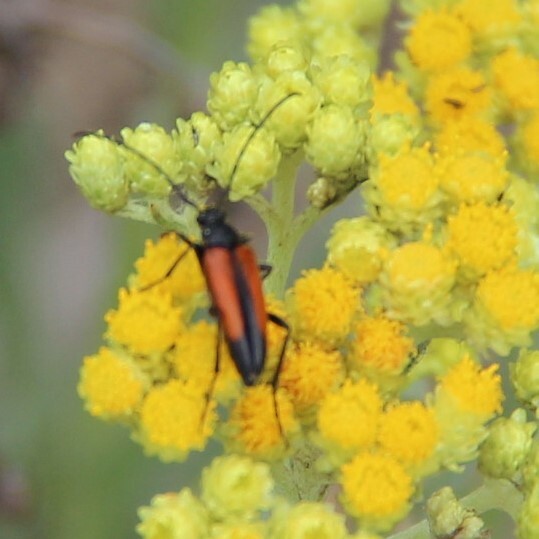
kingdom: Animalia
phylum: Arthropoda
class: Insecta
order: Coleoptera
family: Cerambycidae
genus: Stenurella
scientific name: Stenurella melanura
